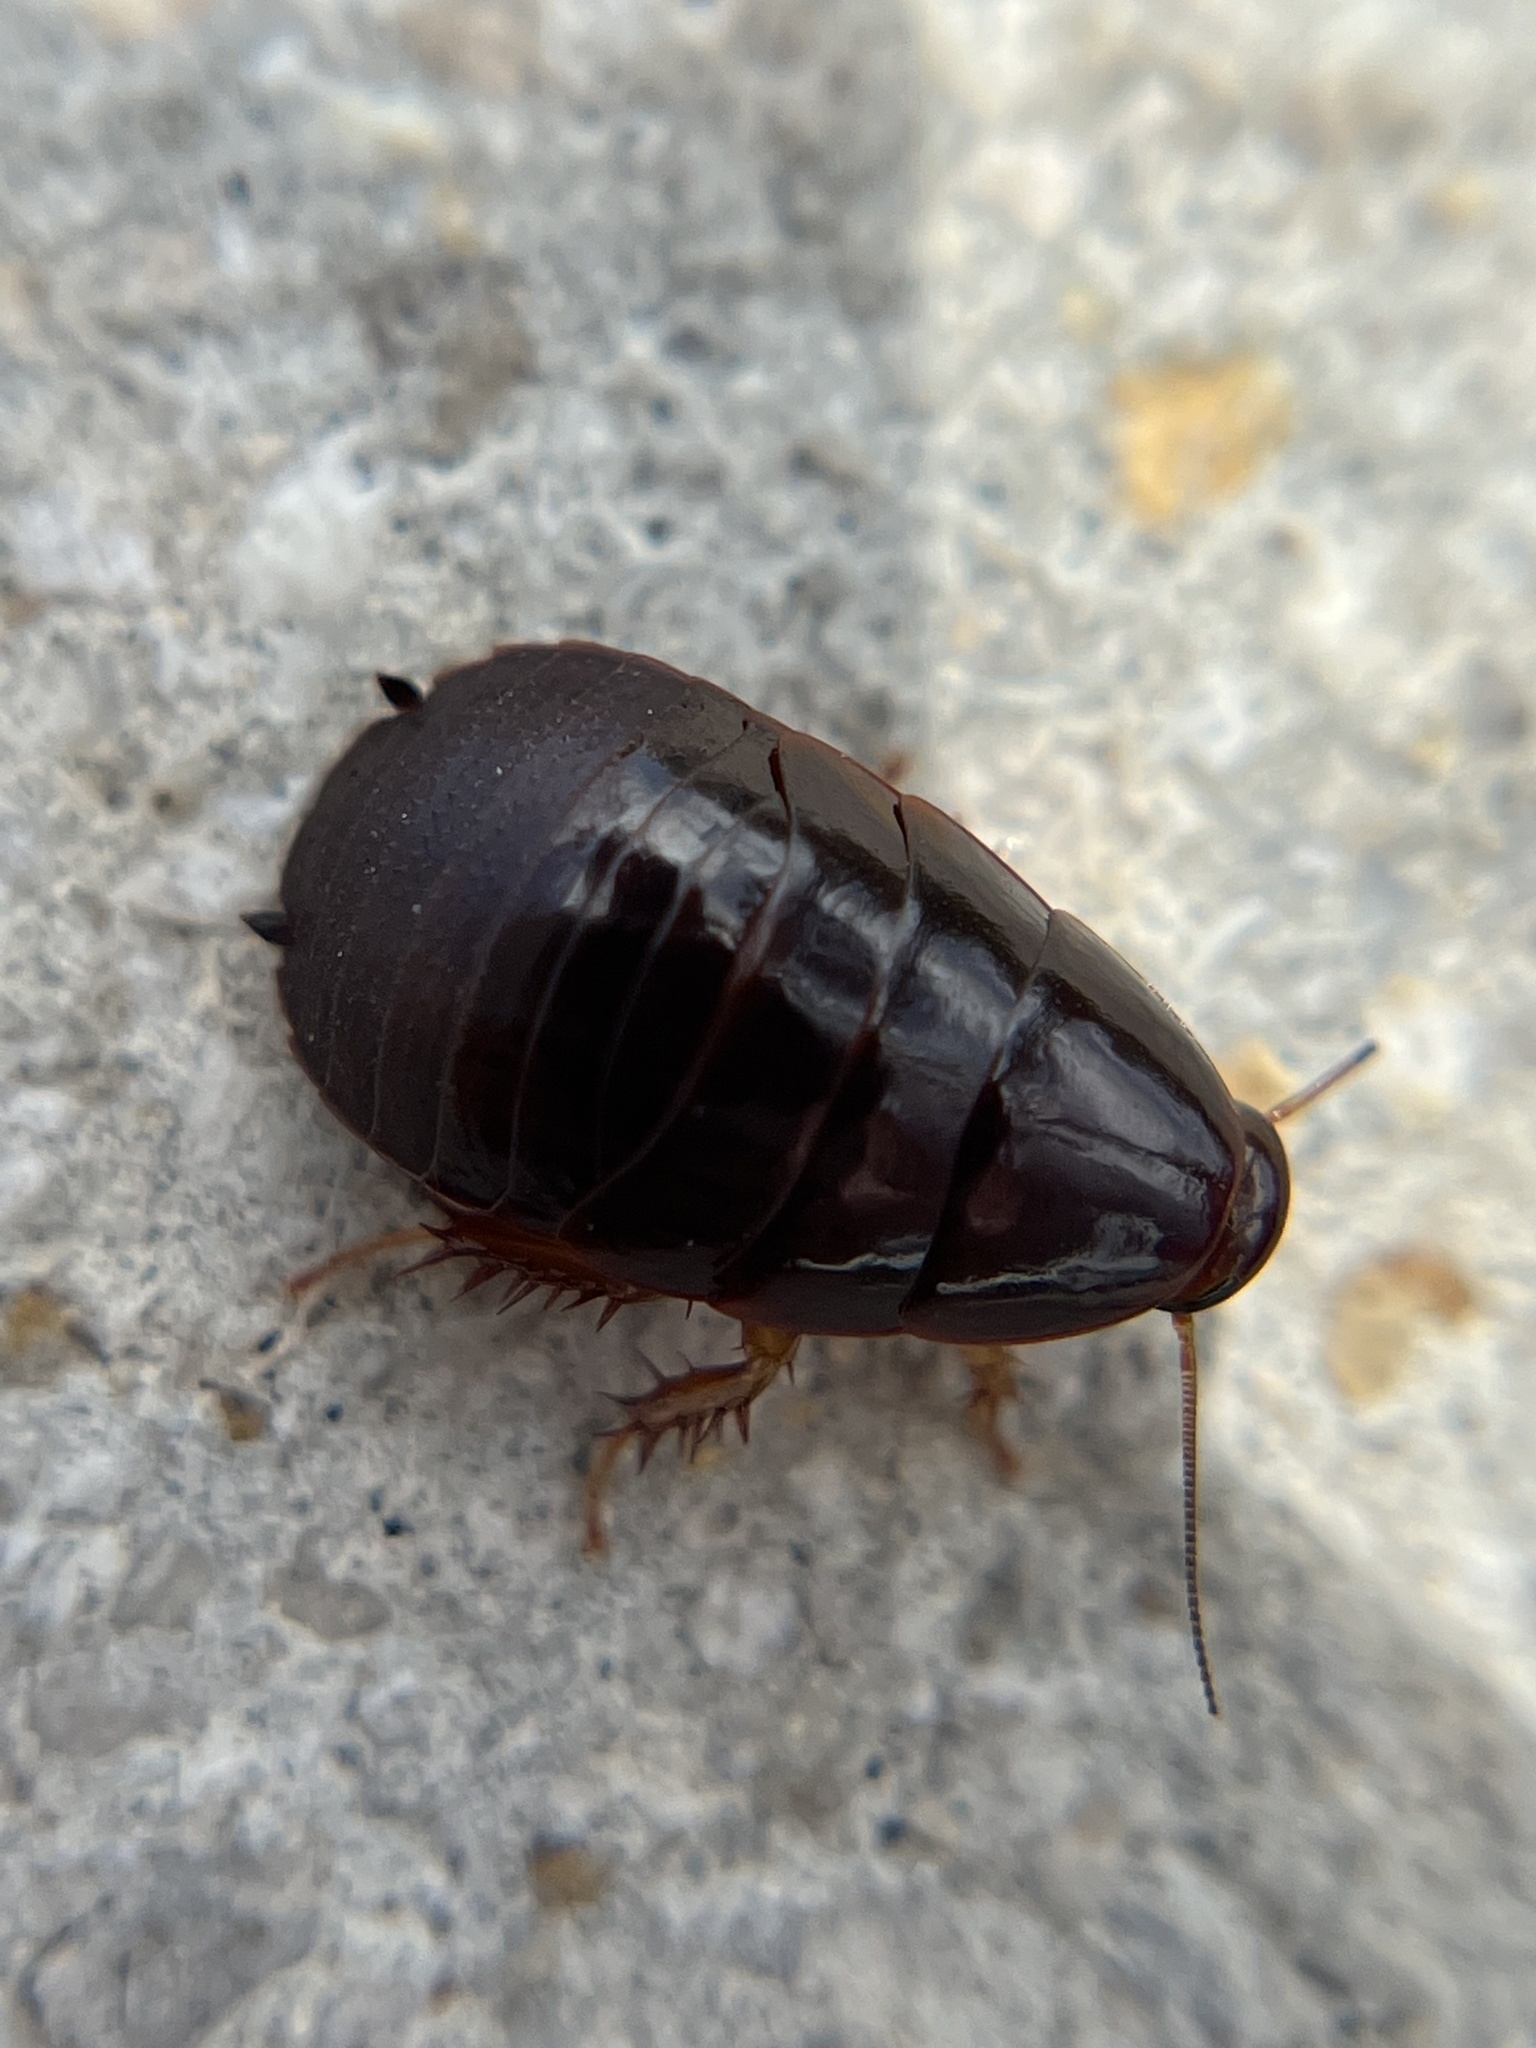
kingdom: Animalia
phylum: Arthropoda
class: Insecta
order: Blattodea
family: Blaberidae
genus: Pycnoscelus
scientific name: Pycnoscelus surinamensis
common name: Surinam cockroach
